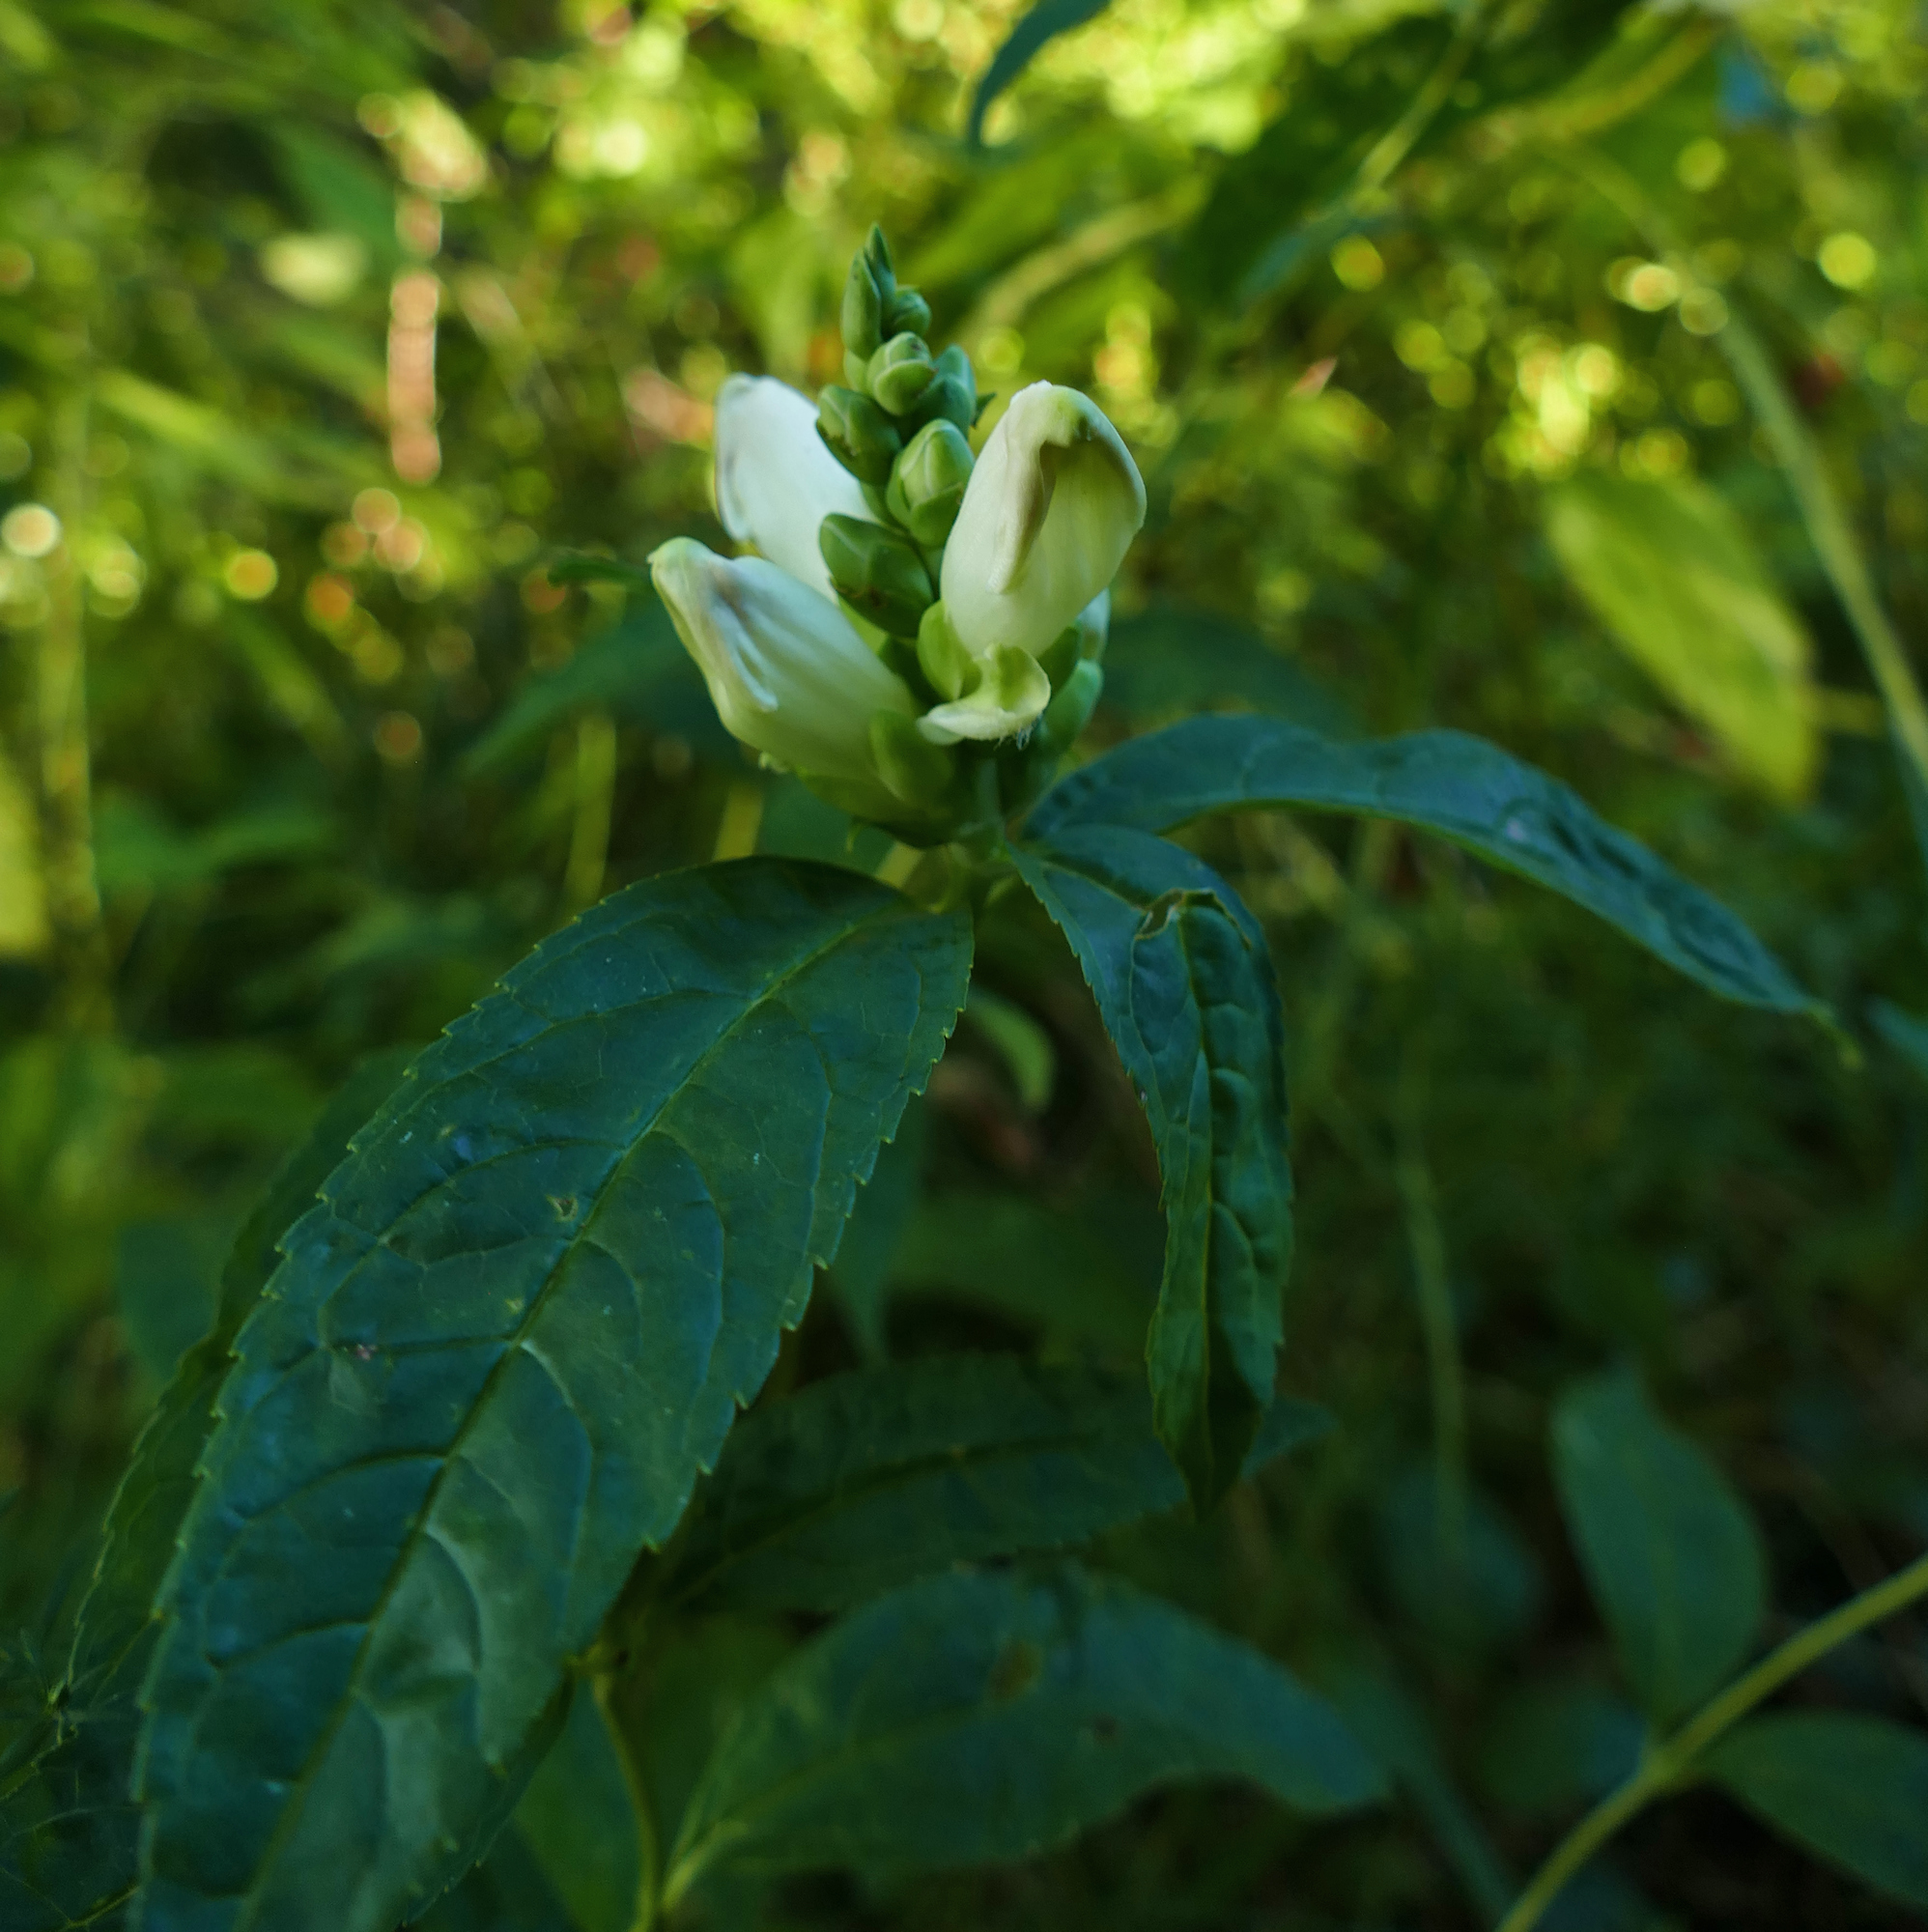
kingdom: Plantae
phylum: Tracheophyta
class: Magnoliopsida
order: Lamiales
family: Plantaginaceae
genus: Chelone
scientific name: Chelone glabra
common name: Snakehead
